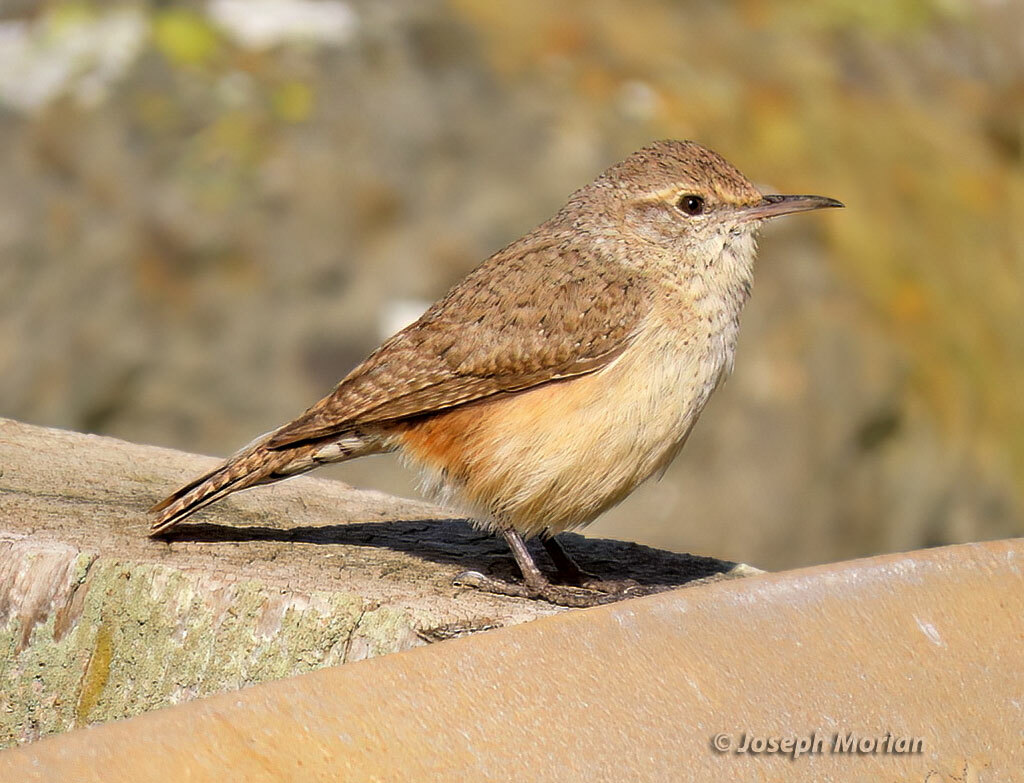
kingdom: Animalia
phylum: Chordata
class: Aves
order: Passeriformes
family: Troglodytidae
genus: Salpinctes
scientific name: Salpinctes obsoletus
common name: Rock wren
